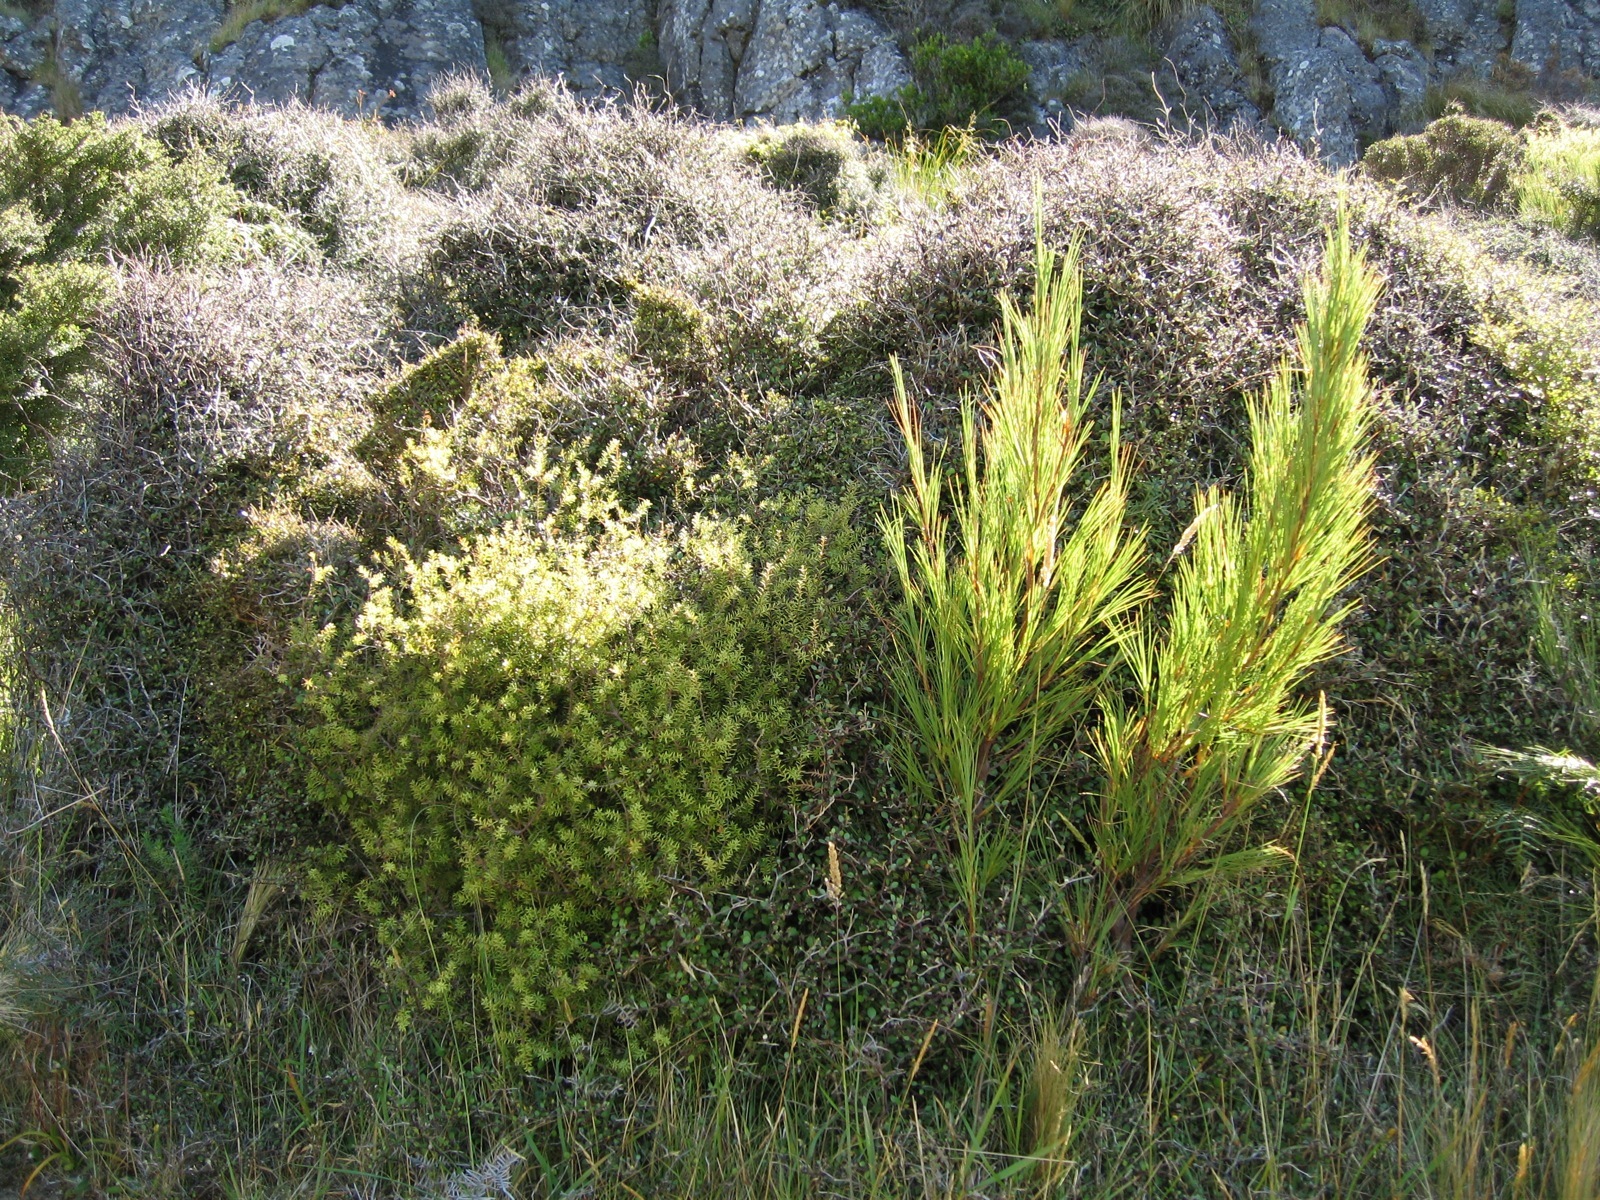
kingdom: Plantae
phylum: Tracheophyta
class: Magnoliopsida
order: Asterales
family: Argophyllaceae
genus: Corokia
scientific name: Corokia cotoneaster
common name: Wire nettingbush
